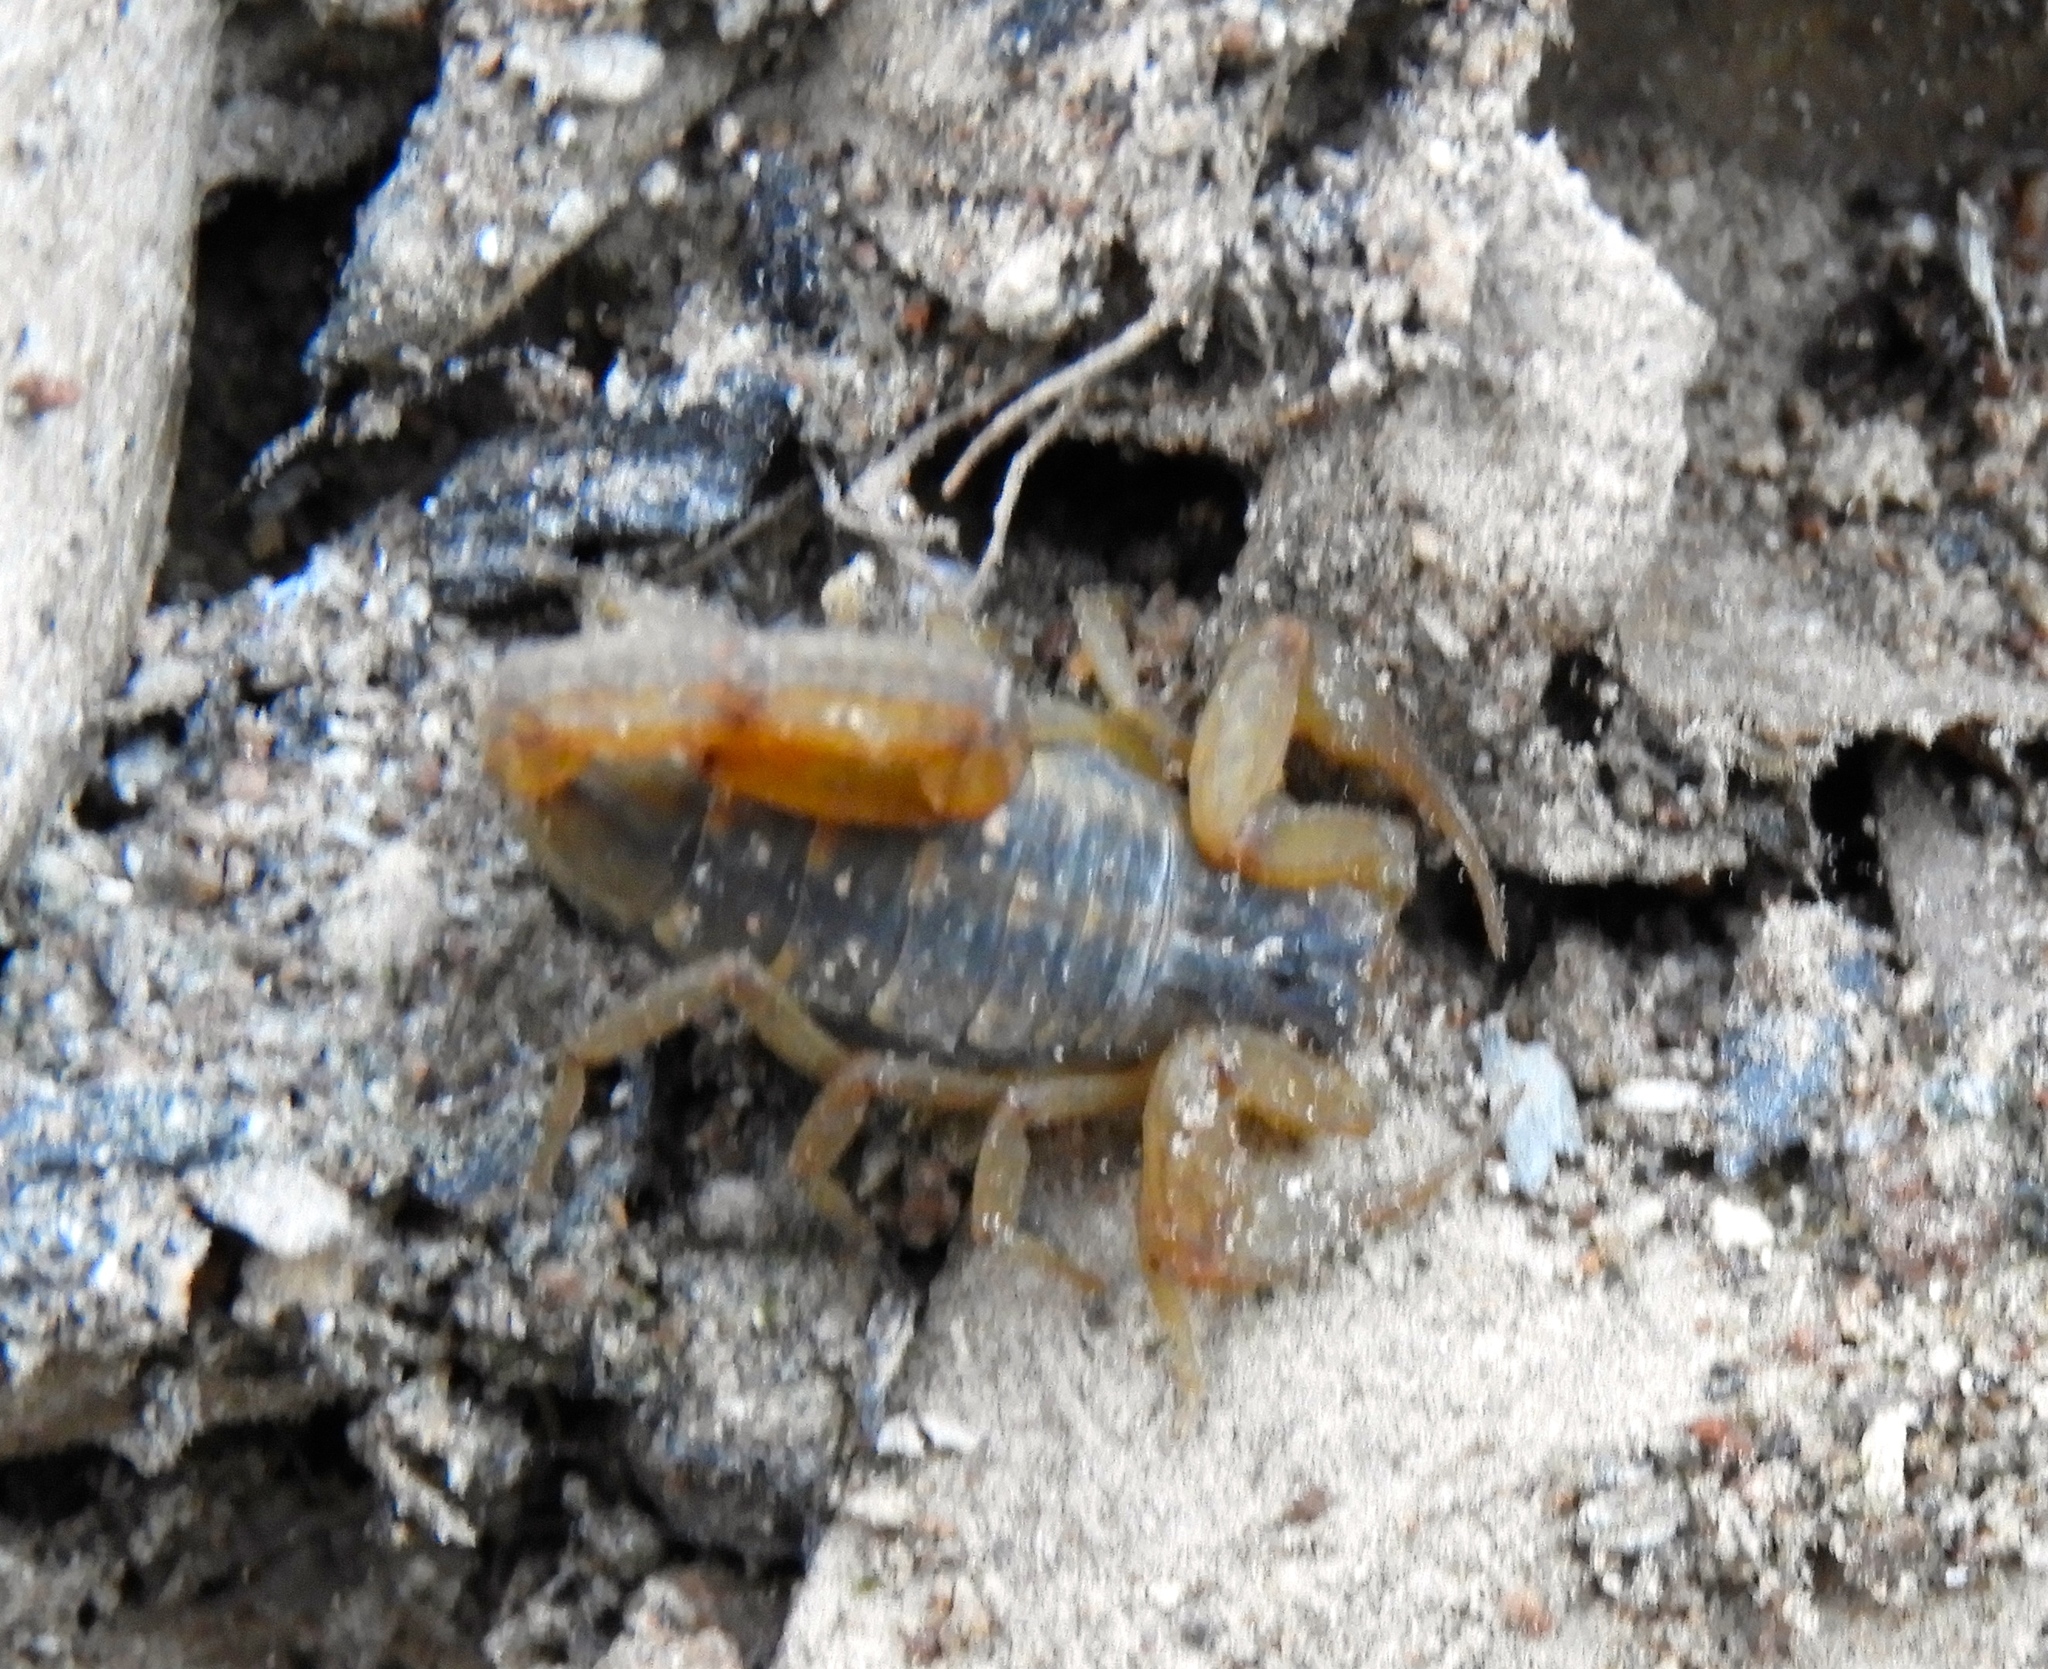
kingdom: Animalia
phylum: Arthropoda
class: Arachnida
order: Scorpiones
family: Buthidae
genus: Centruroides
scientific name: Centruroides baldazoi
